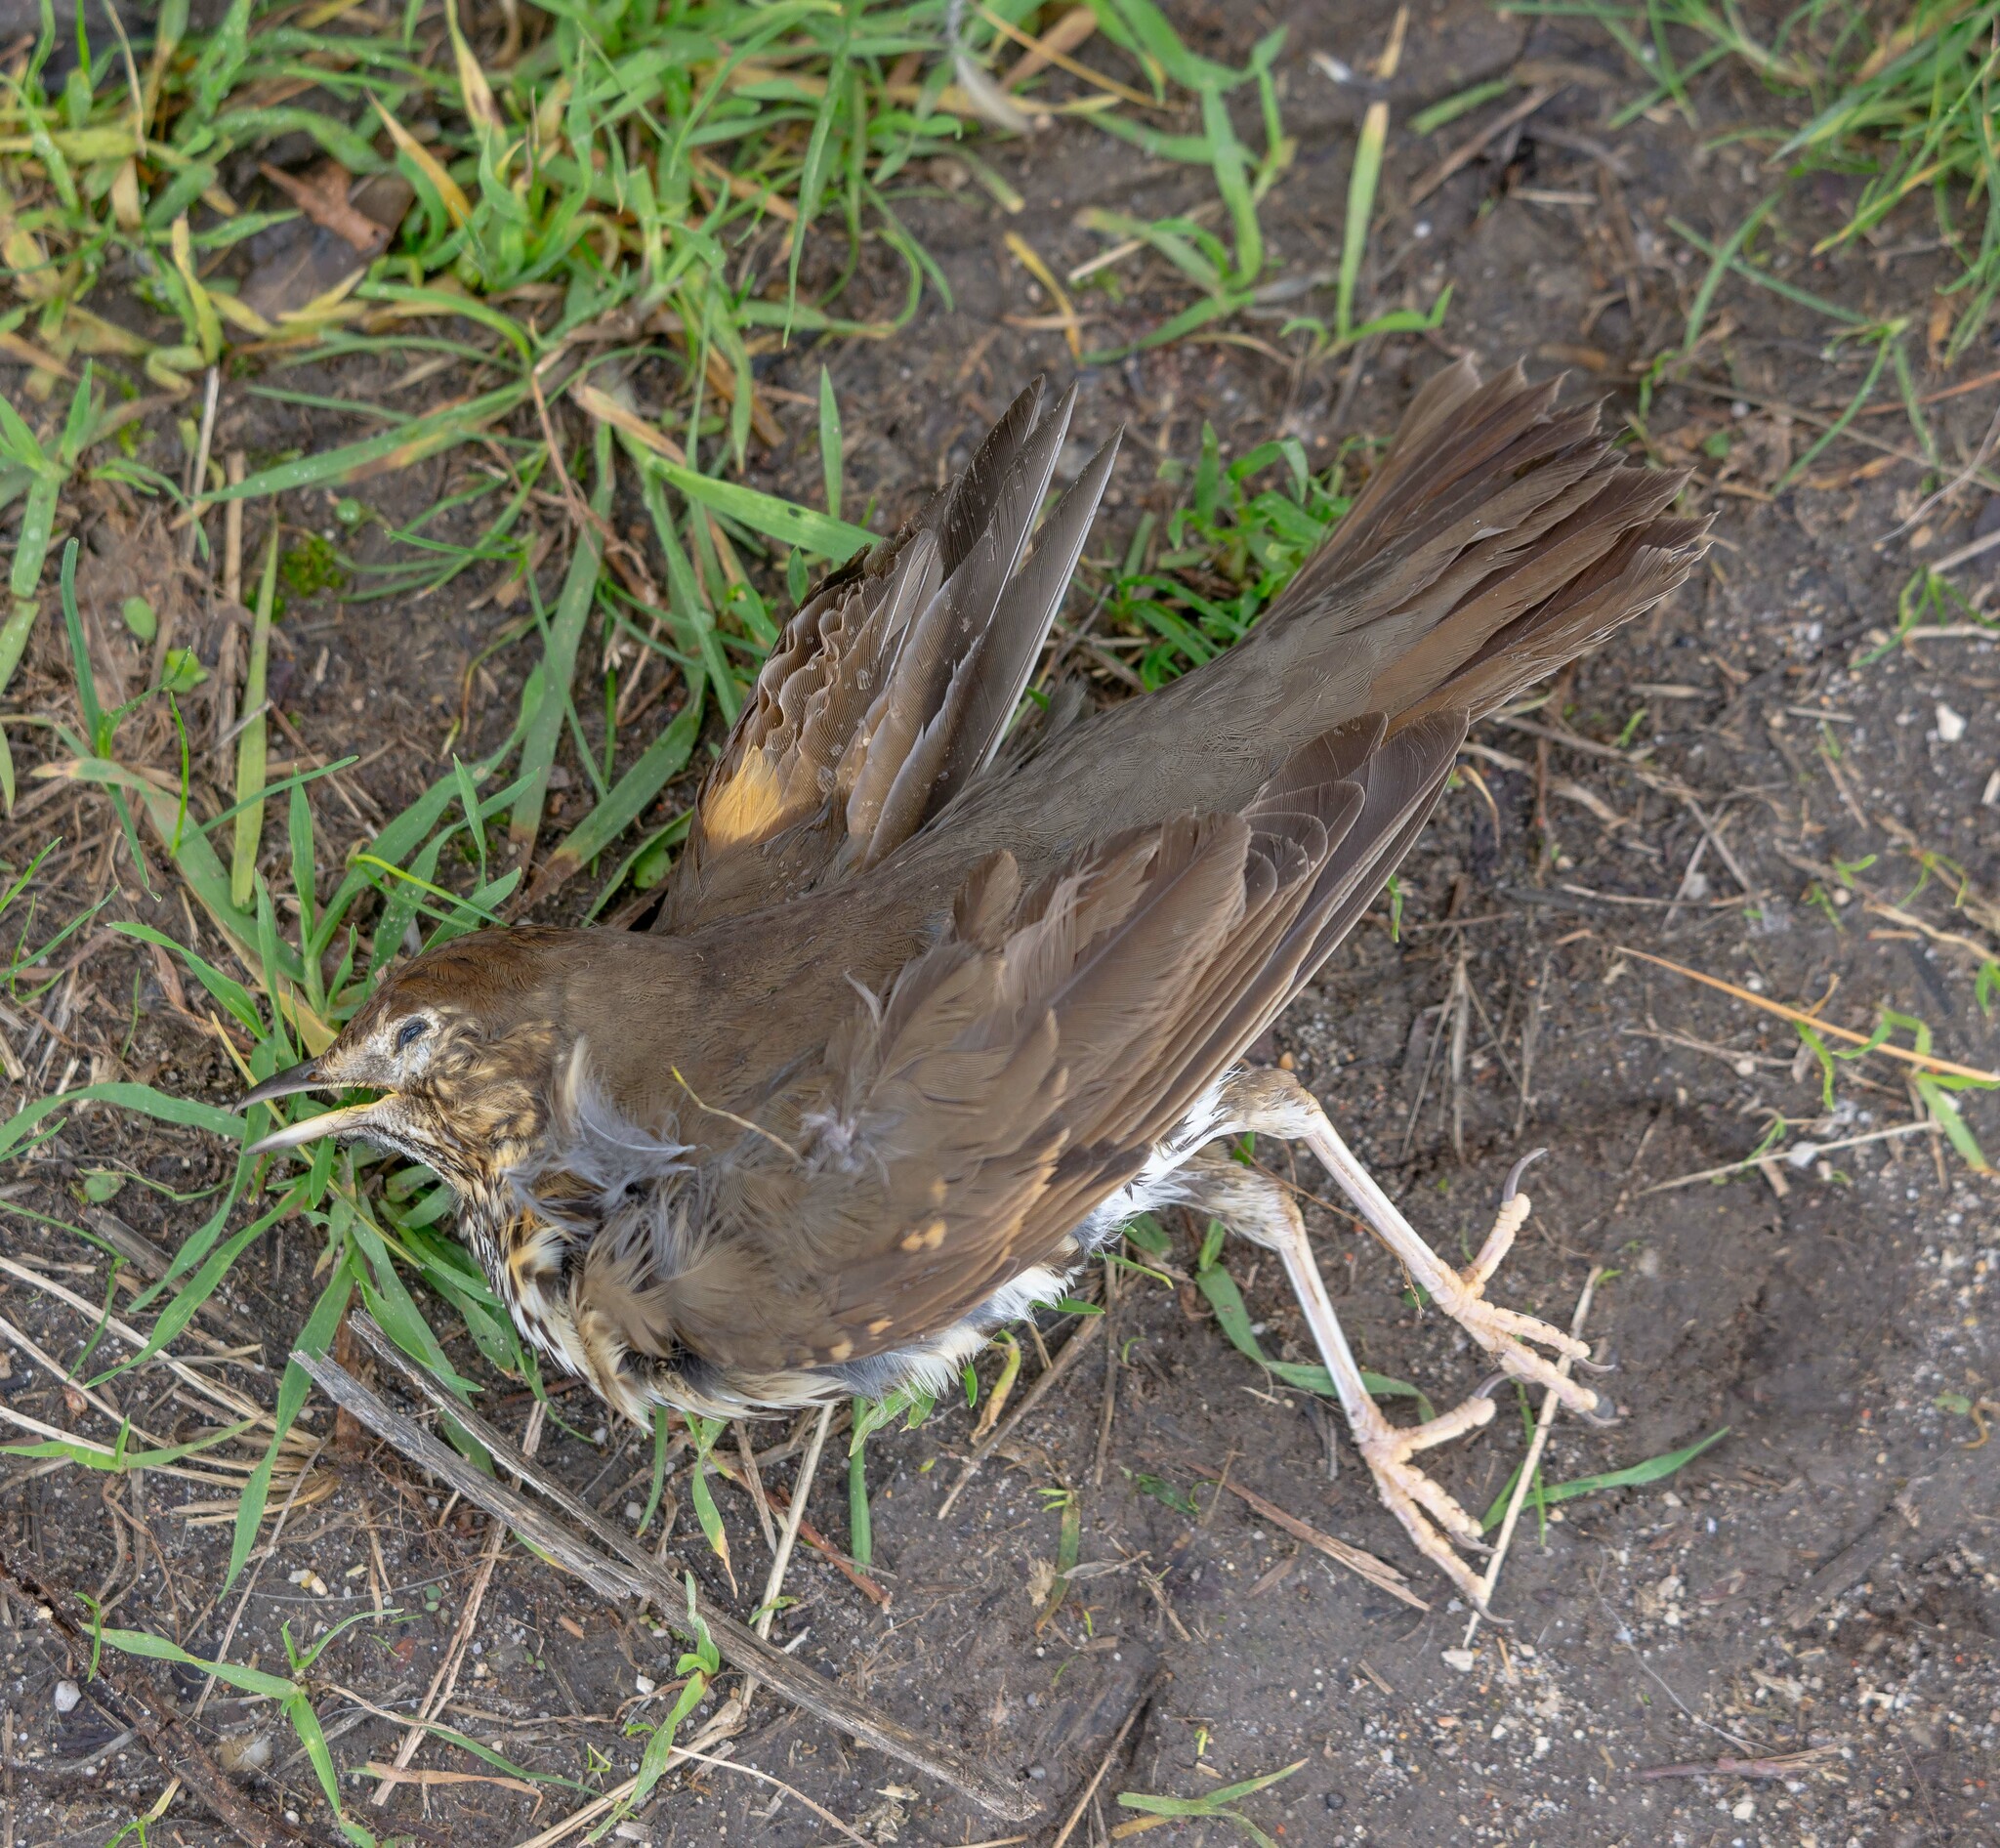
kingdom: Animalia
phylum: Chordata
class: Aves
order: Passeriformes
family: Turdidae
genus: Turdus
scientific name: Turdus philomelos
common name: Song thrush
